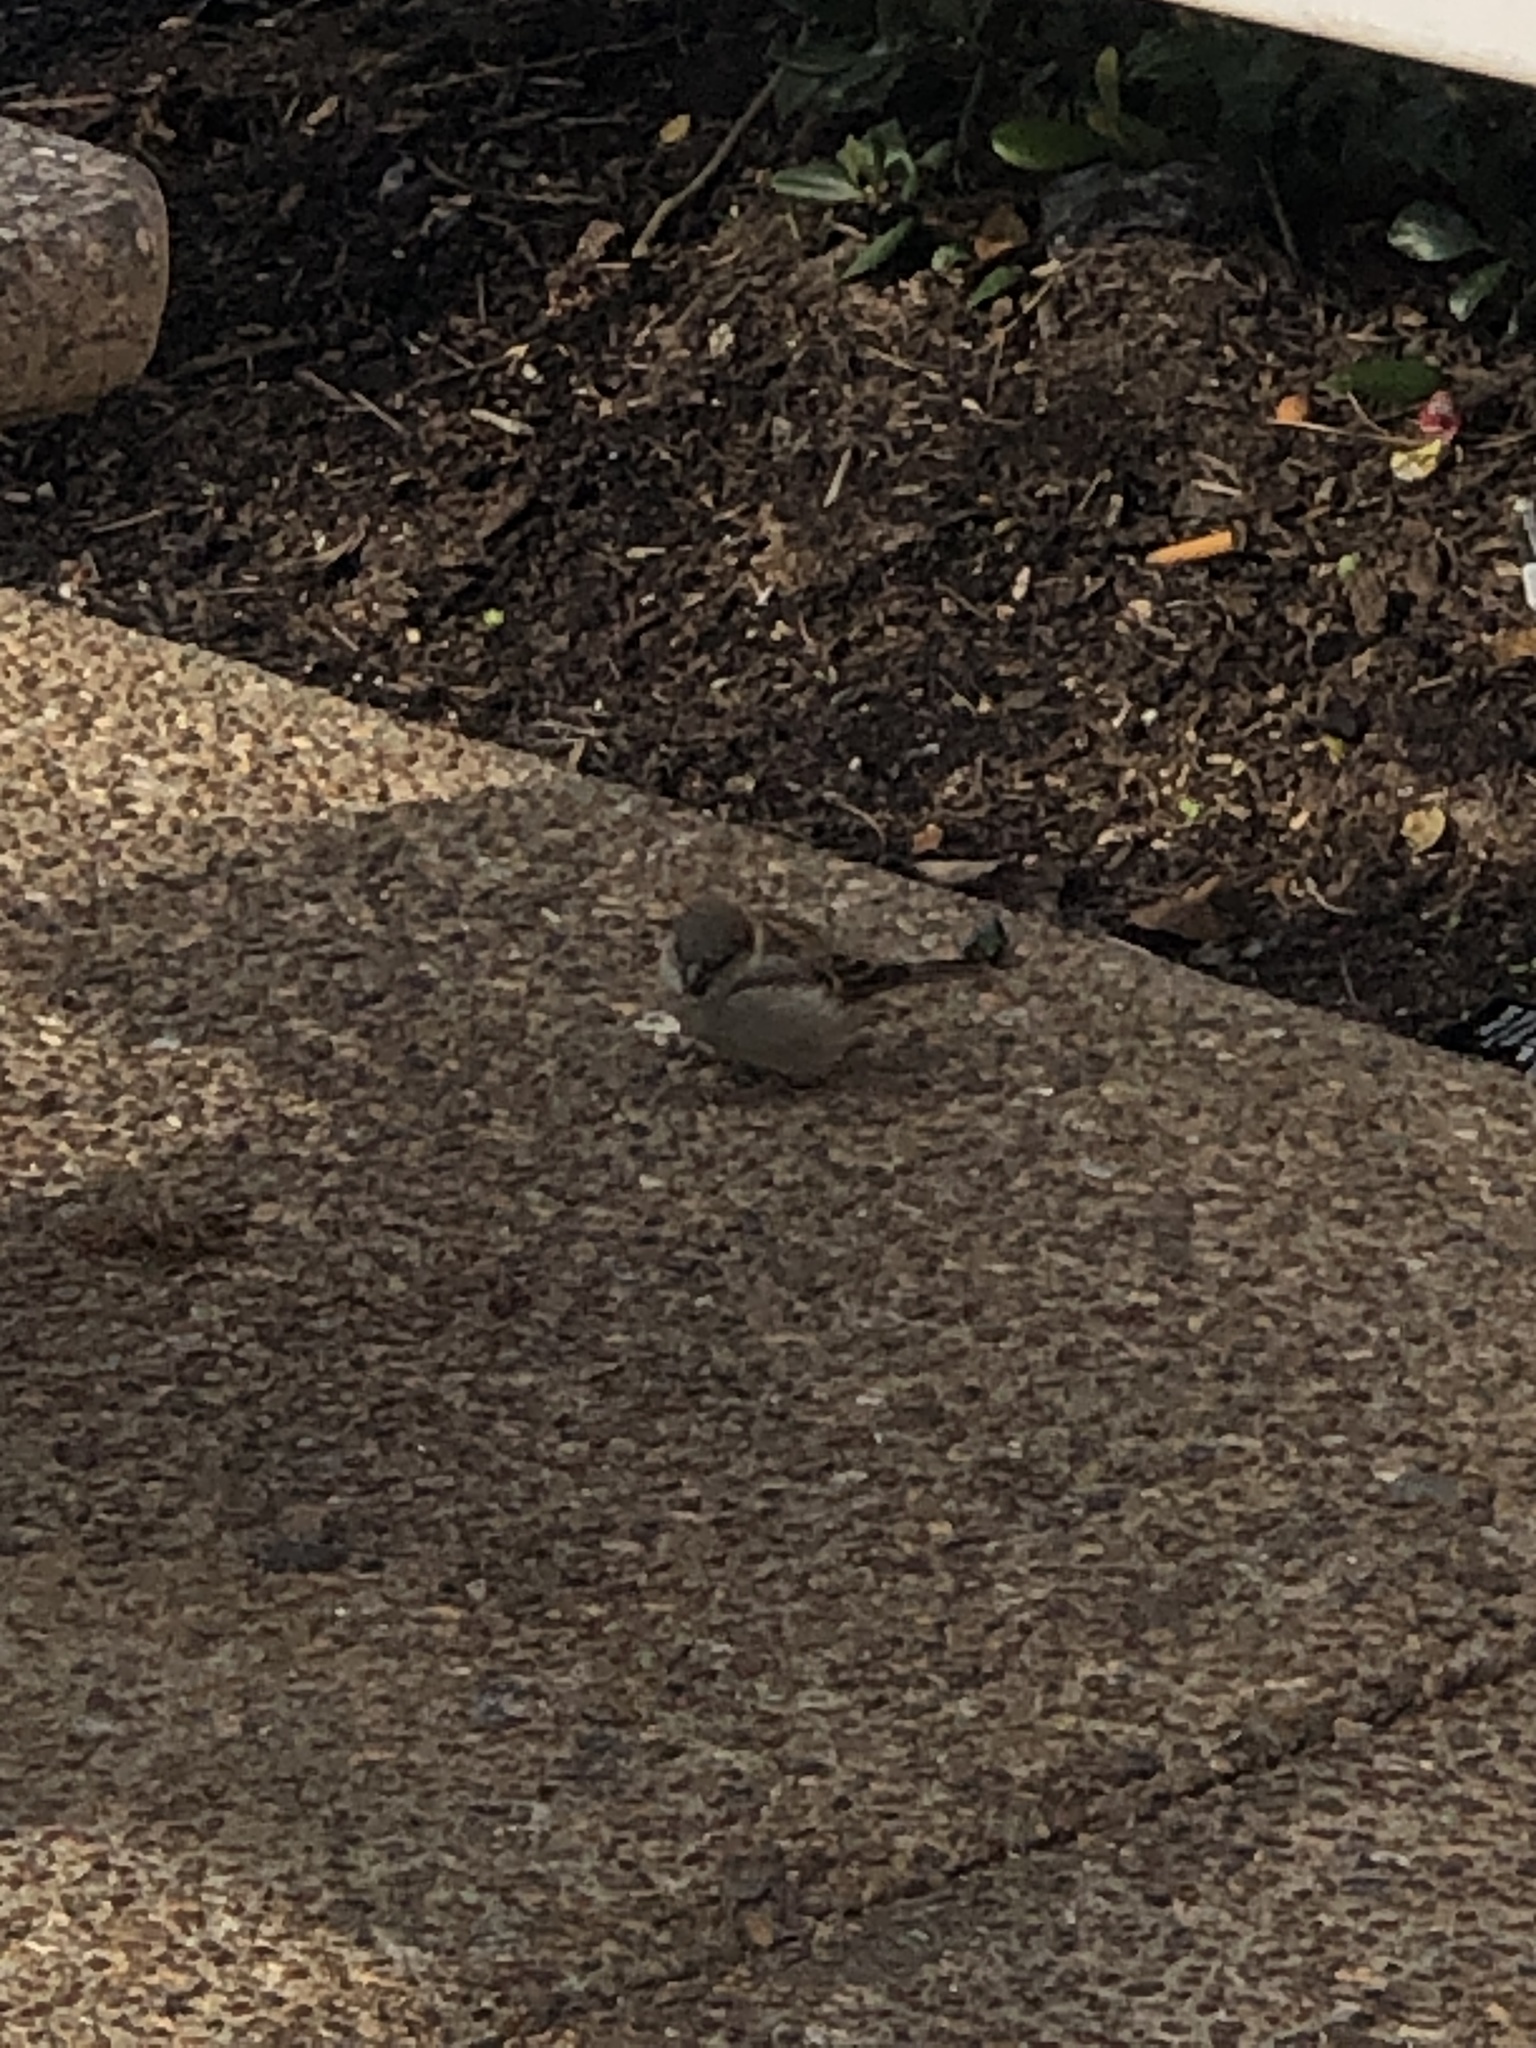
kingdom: Animalia
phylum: Chordata
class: Aves
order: Passeriformes
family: Passeridae
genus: Passer
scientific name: Passer domesticus
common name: House sparrow
